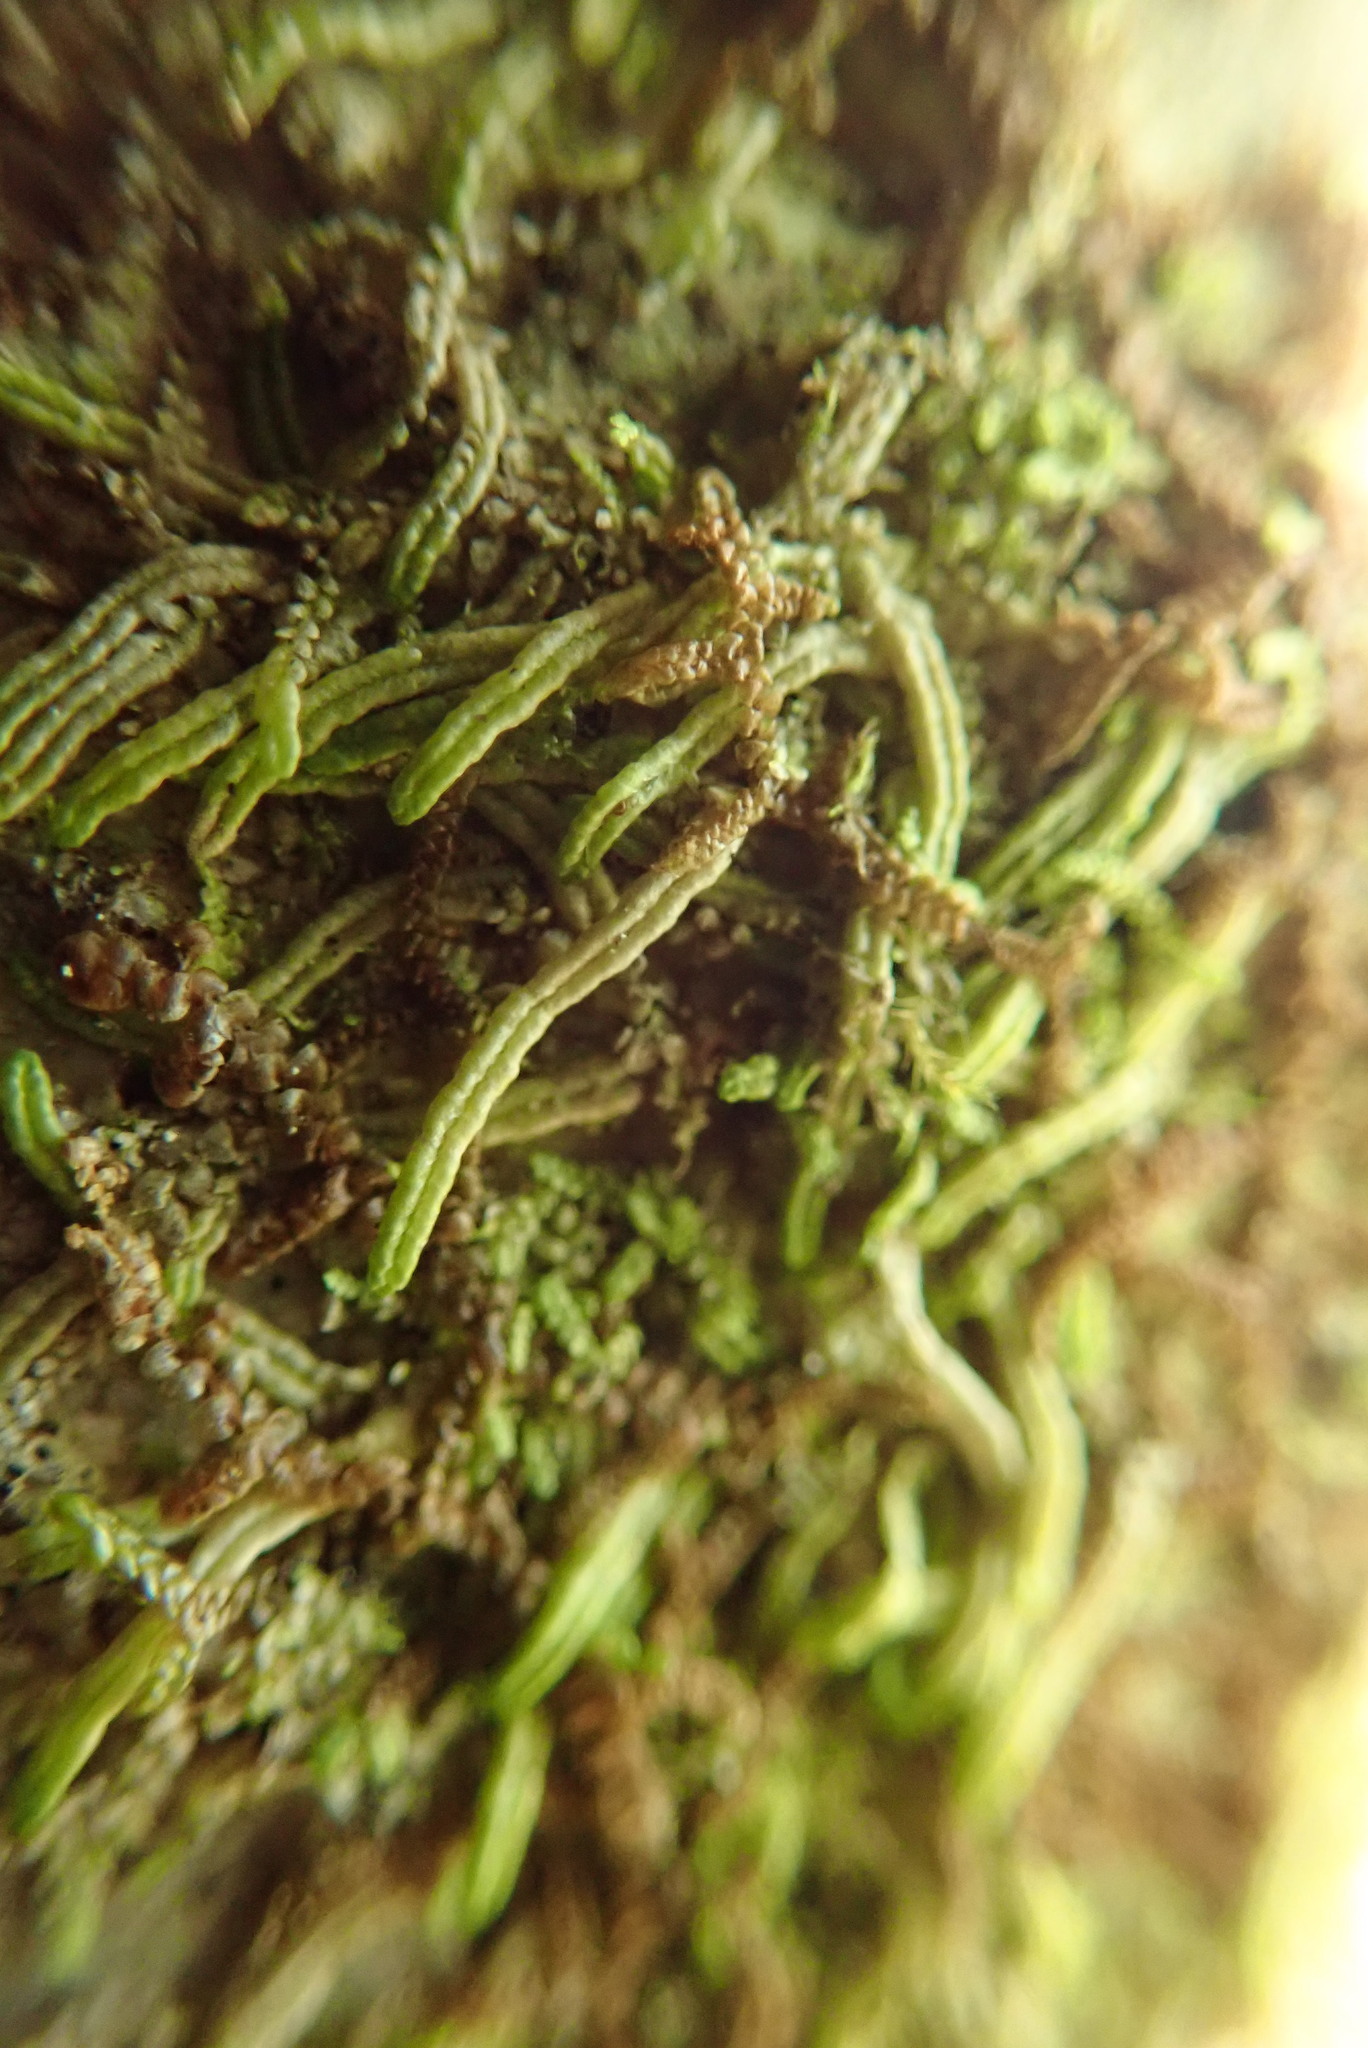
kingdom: Plantae
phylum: Marchantiophyta
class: Jungermanniopsida
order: Porellales
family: Radulaceae
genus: Radula
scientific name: Radula bolanderi
